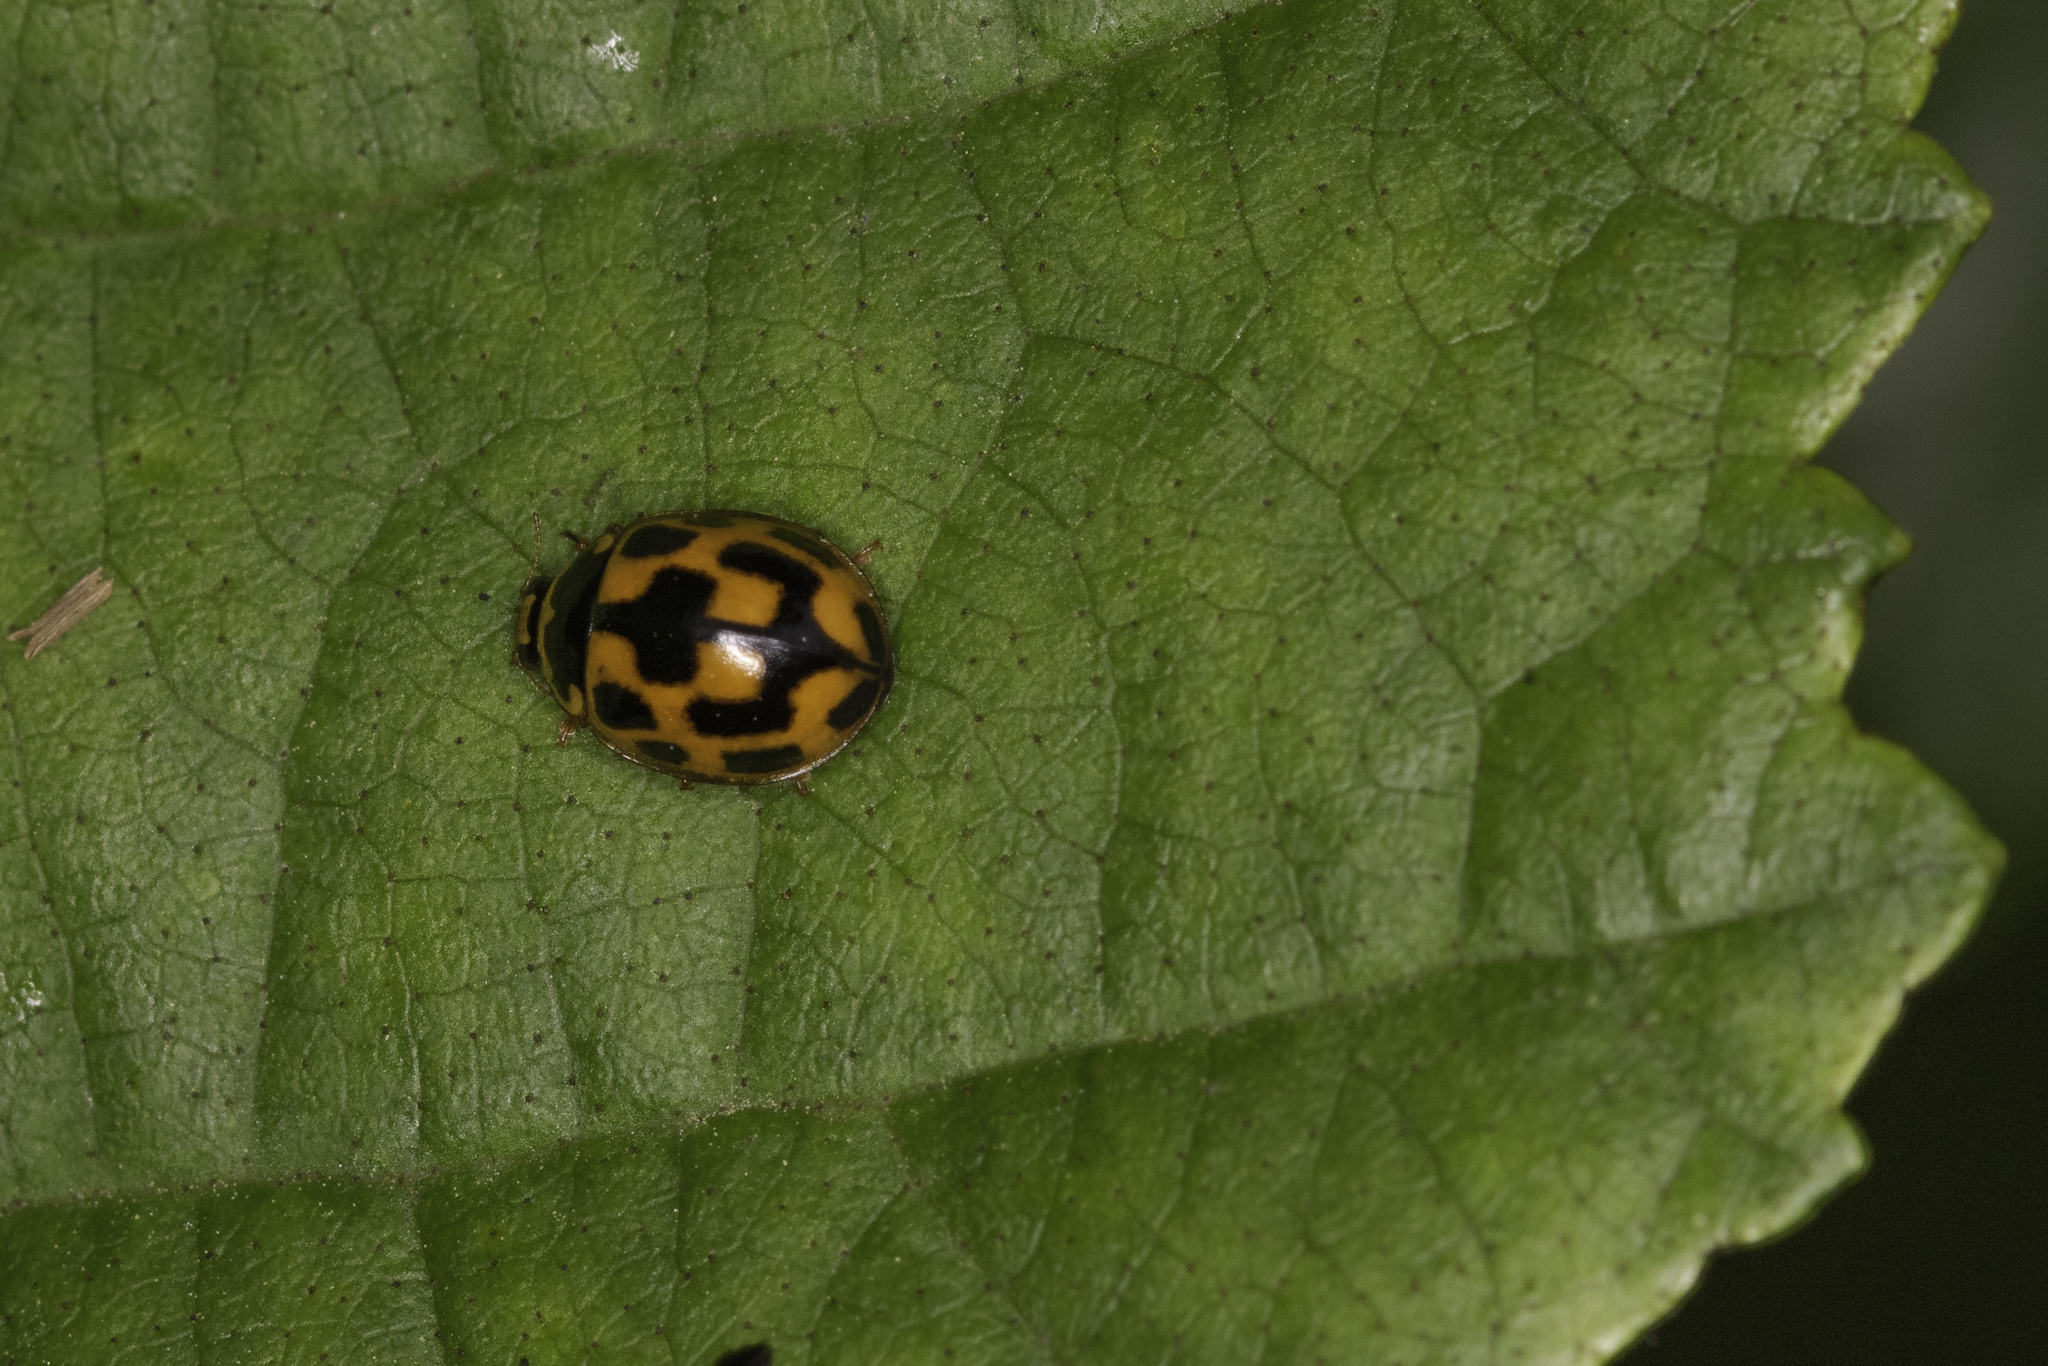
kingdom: Animalia
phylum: Arthropoda
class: Insecta
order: Coleoptera
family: Coccinellidae
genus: Propylaea
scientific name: Propylaea quatuordecimpunctata
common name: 14-spotted ladybird beetle
